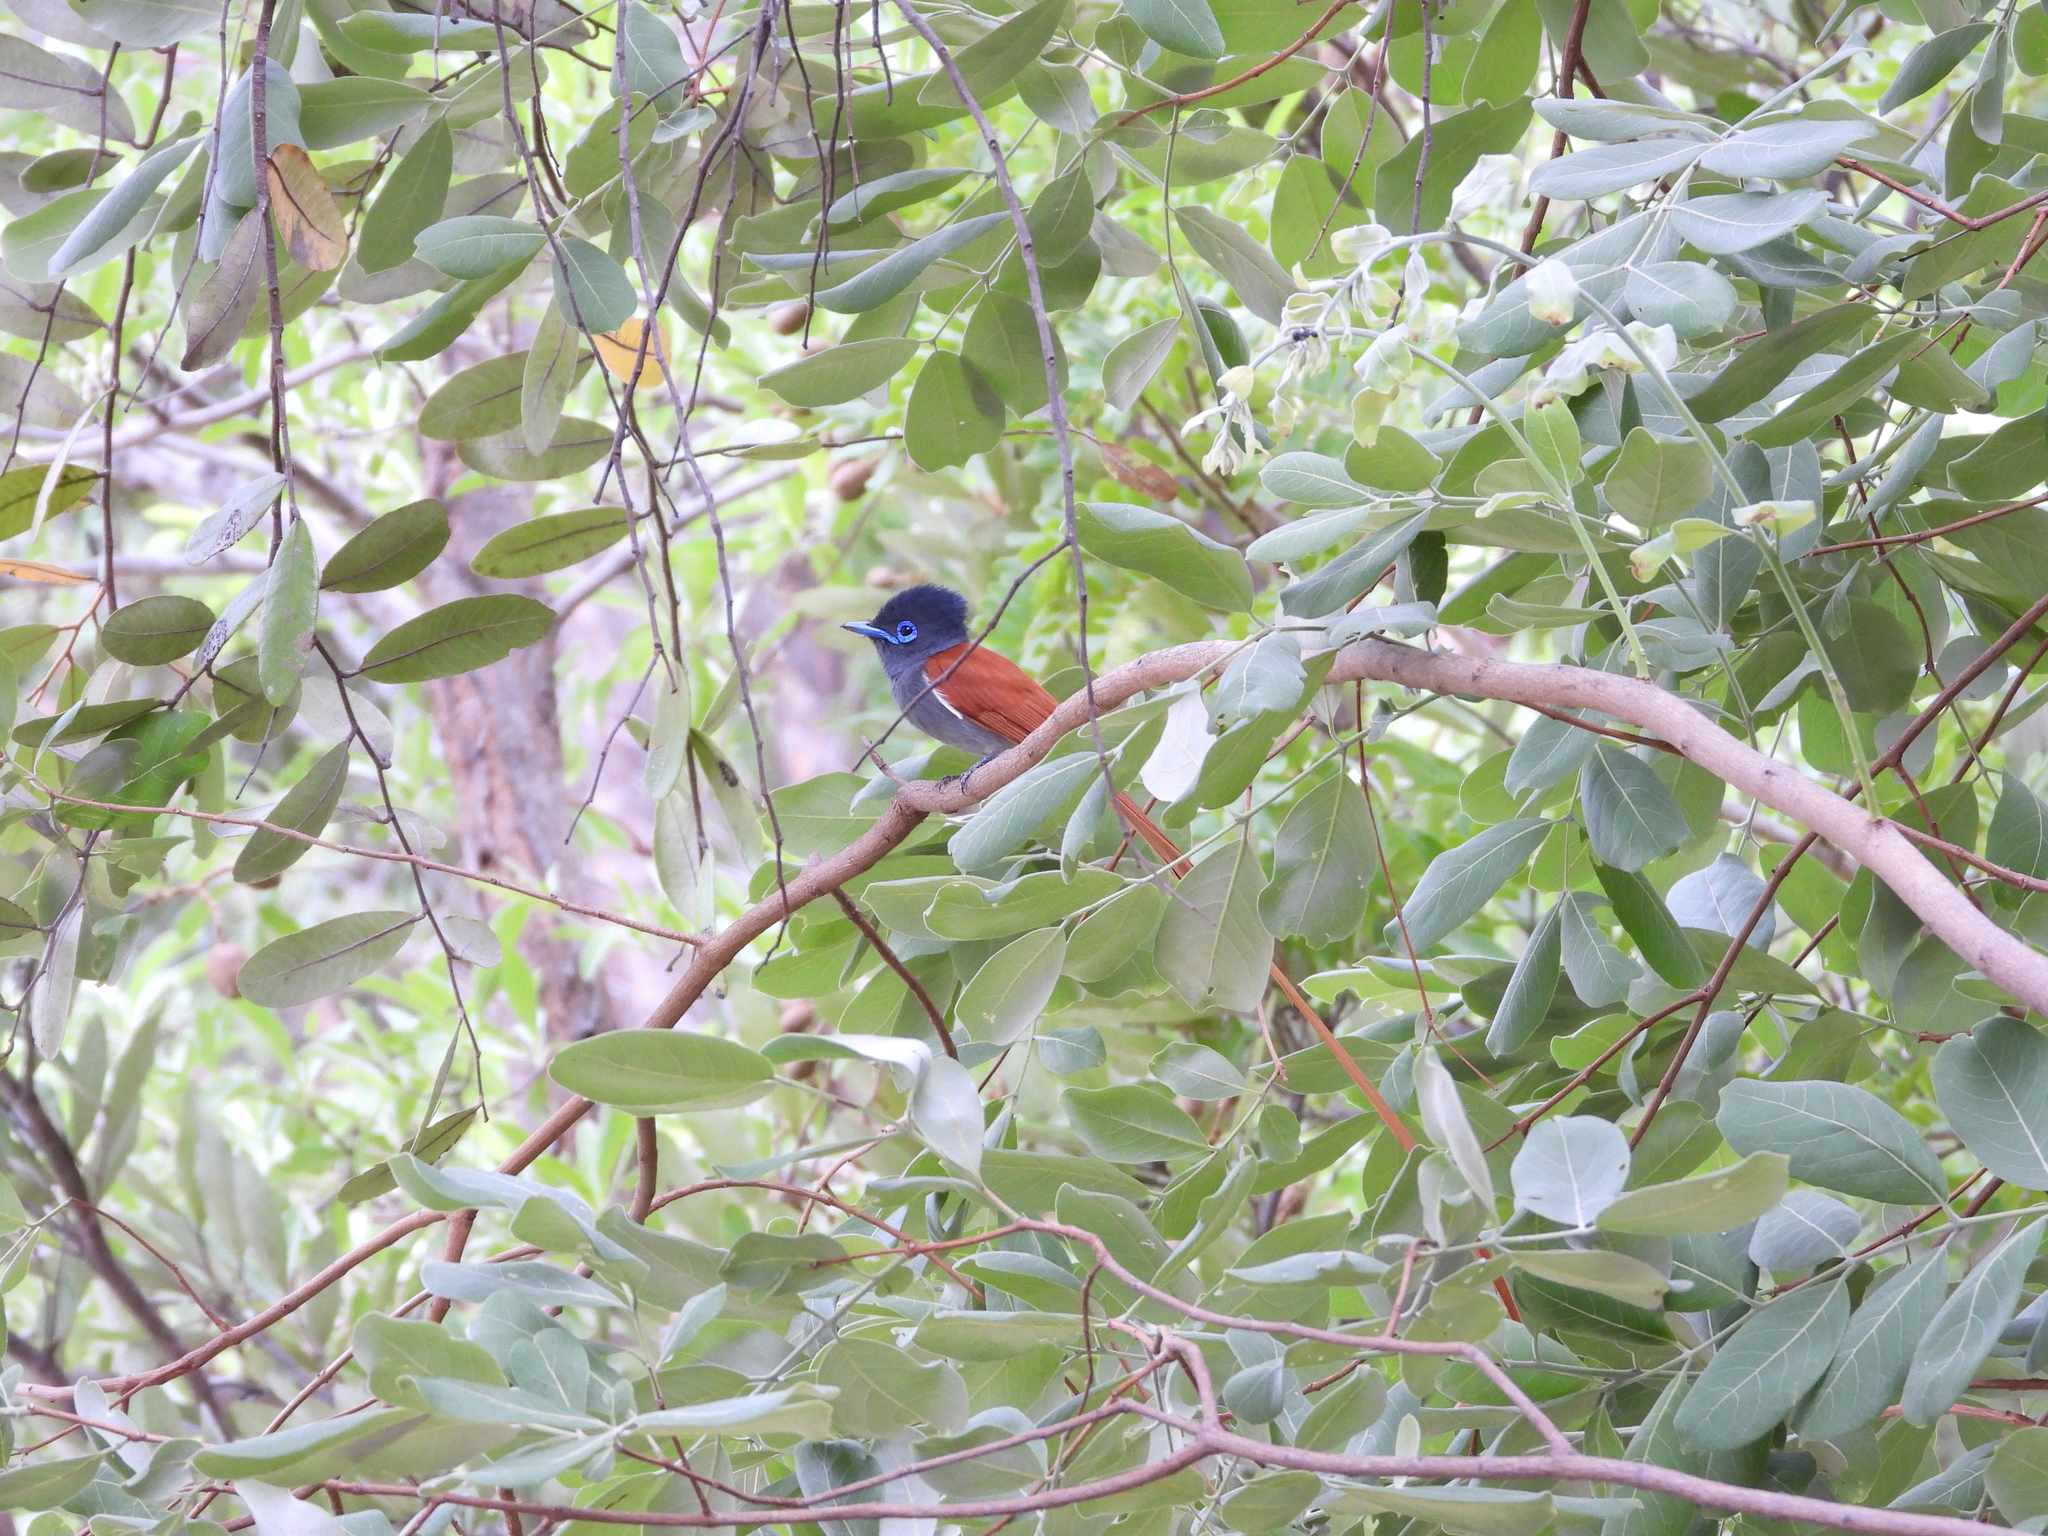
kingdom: Animalia
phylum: Chordata
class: Aves
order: Passeriformes
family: Monarchidae
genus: Terpsiphone
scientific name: Terpsiphone viridis
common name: African paradise flycatcher
